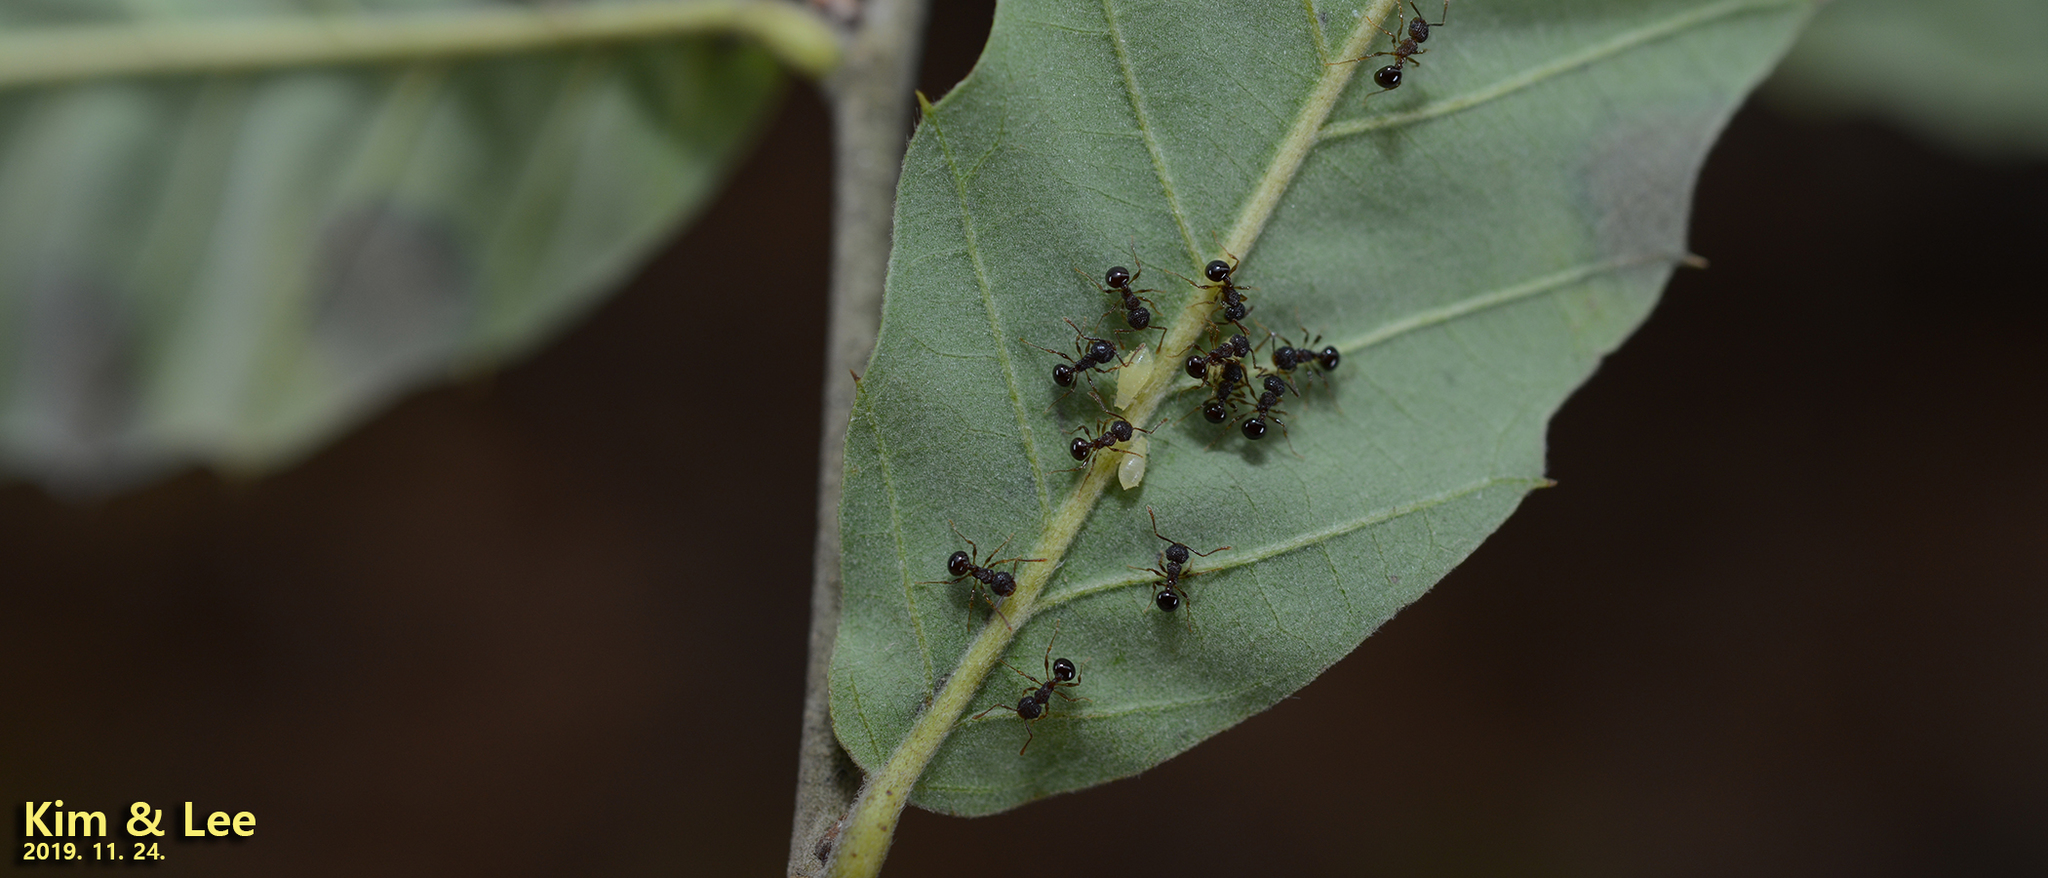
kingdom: Animalia
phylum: Arthropoda
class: Insecta
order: Hymenoptera
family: Formicidae
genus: Pristomyrmex
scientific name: Pristomyrmex punctatus
